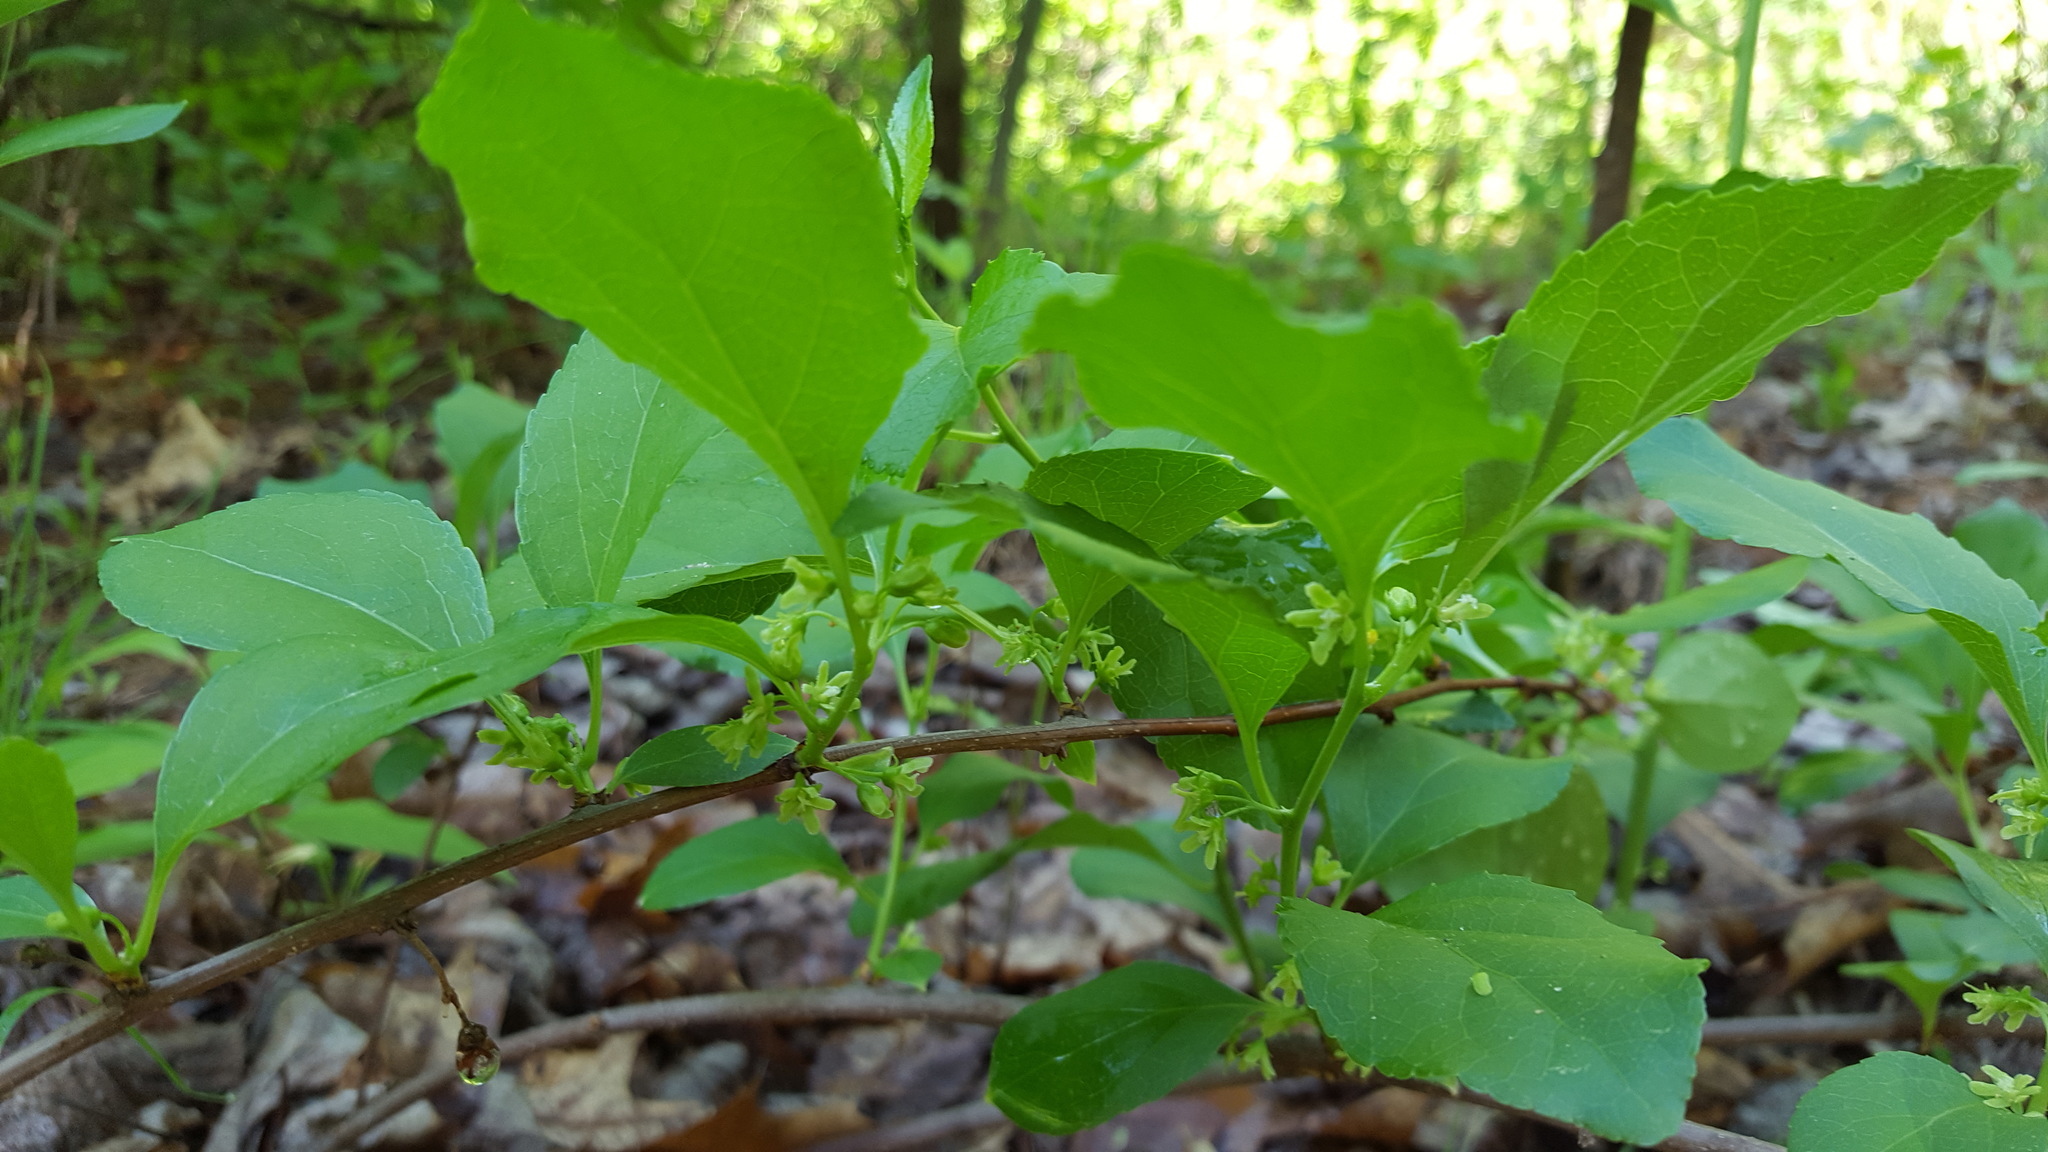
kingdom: Plantae
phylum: Tracheophyta
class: Magnoliopsida
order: Celastrales
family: Celastraceae
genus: Celastrus
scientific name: Celastrus orbiculatus
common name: Oriental bittersweet
